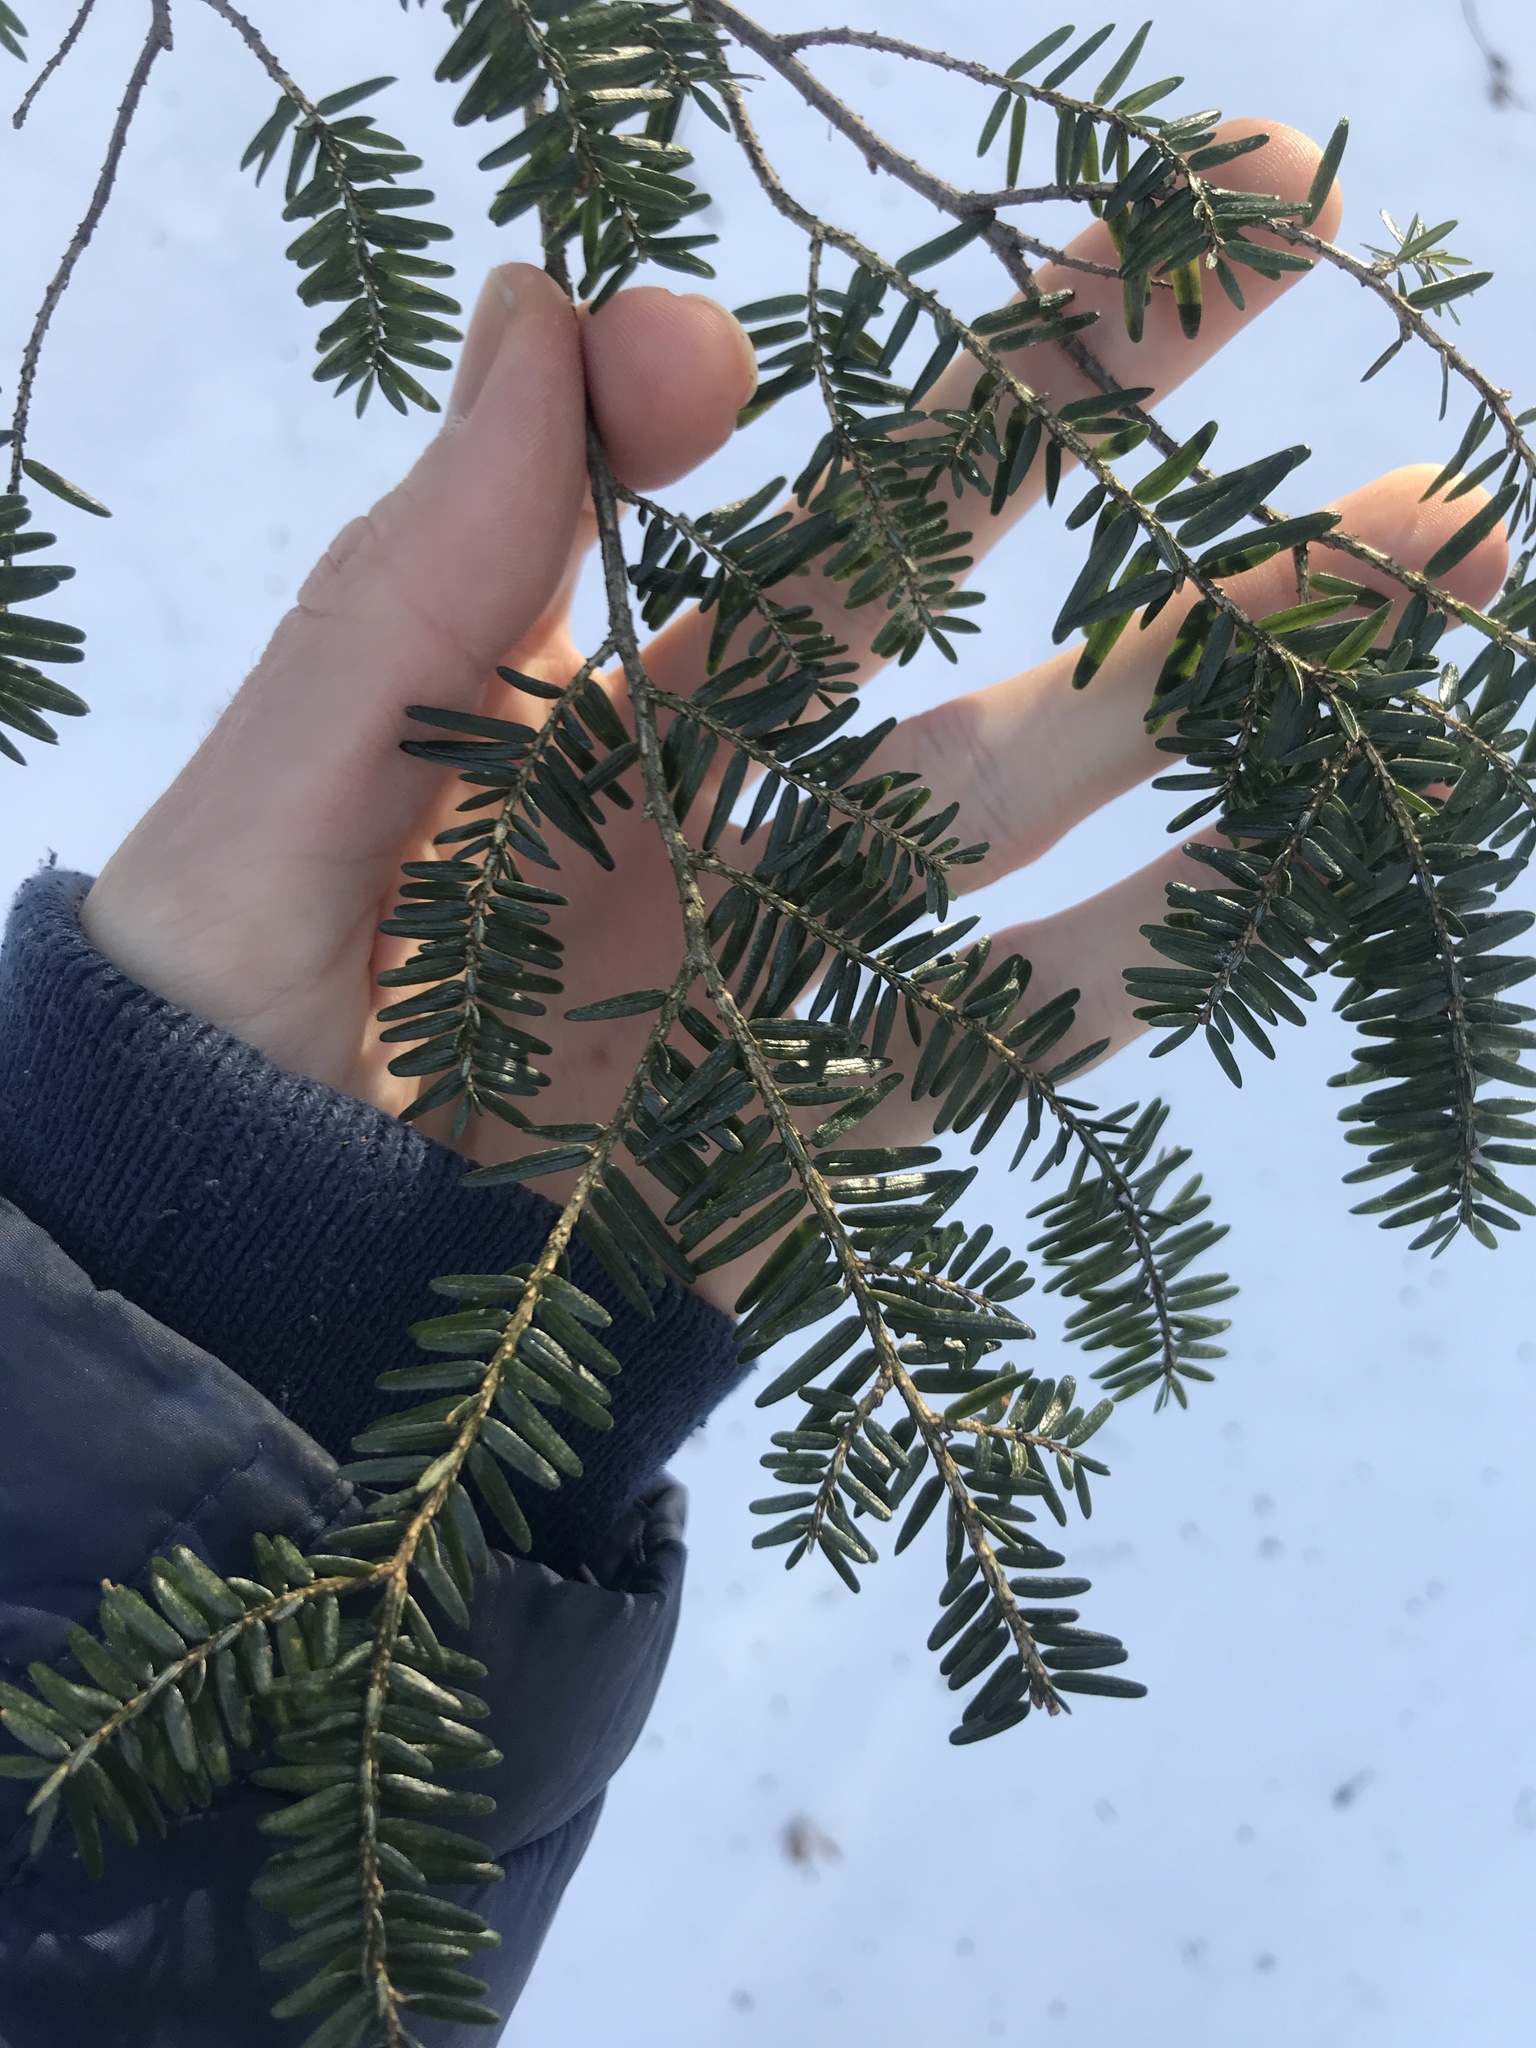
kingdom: Plantae
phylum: Tracheophyta
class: Pinopsida
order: Pinales
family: Pinaceae
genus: Tsuga
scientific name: Tsuga canadensis
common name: Eastern hemlock
